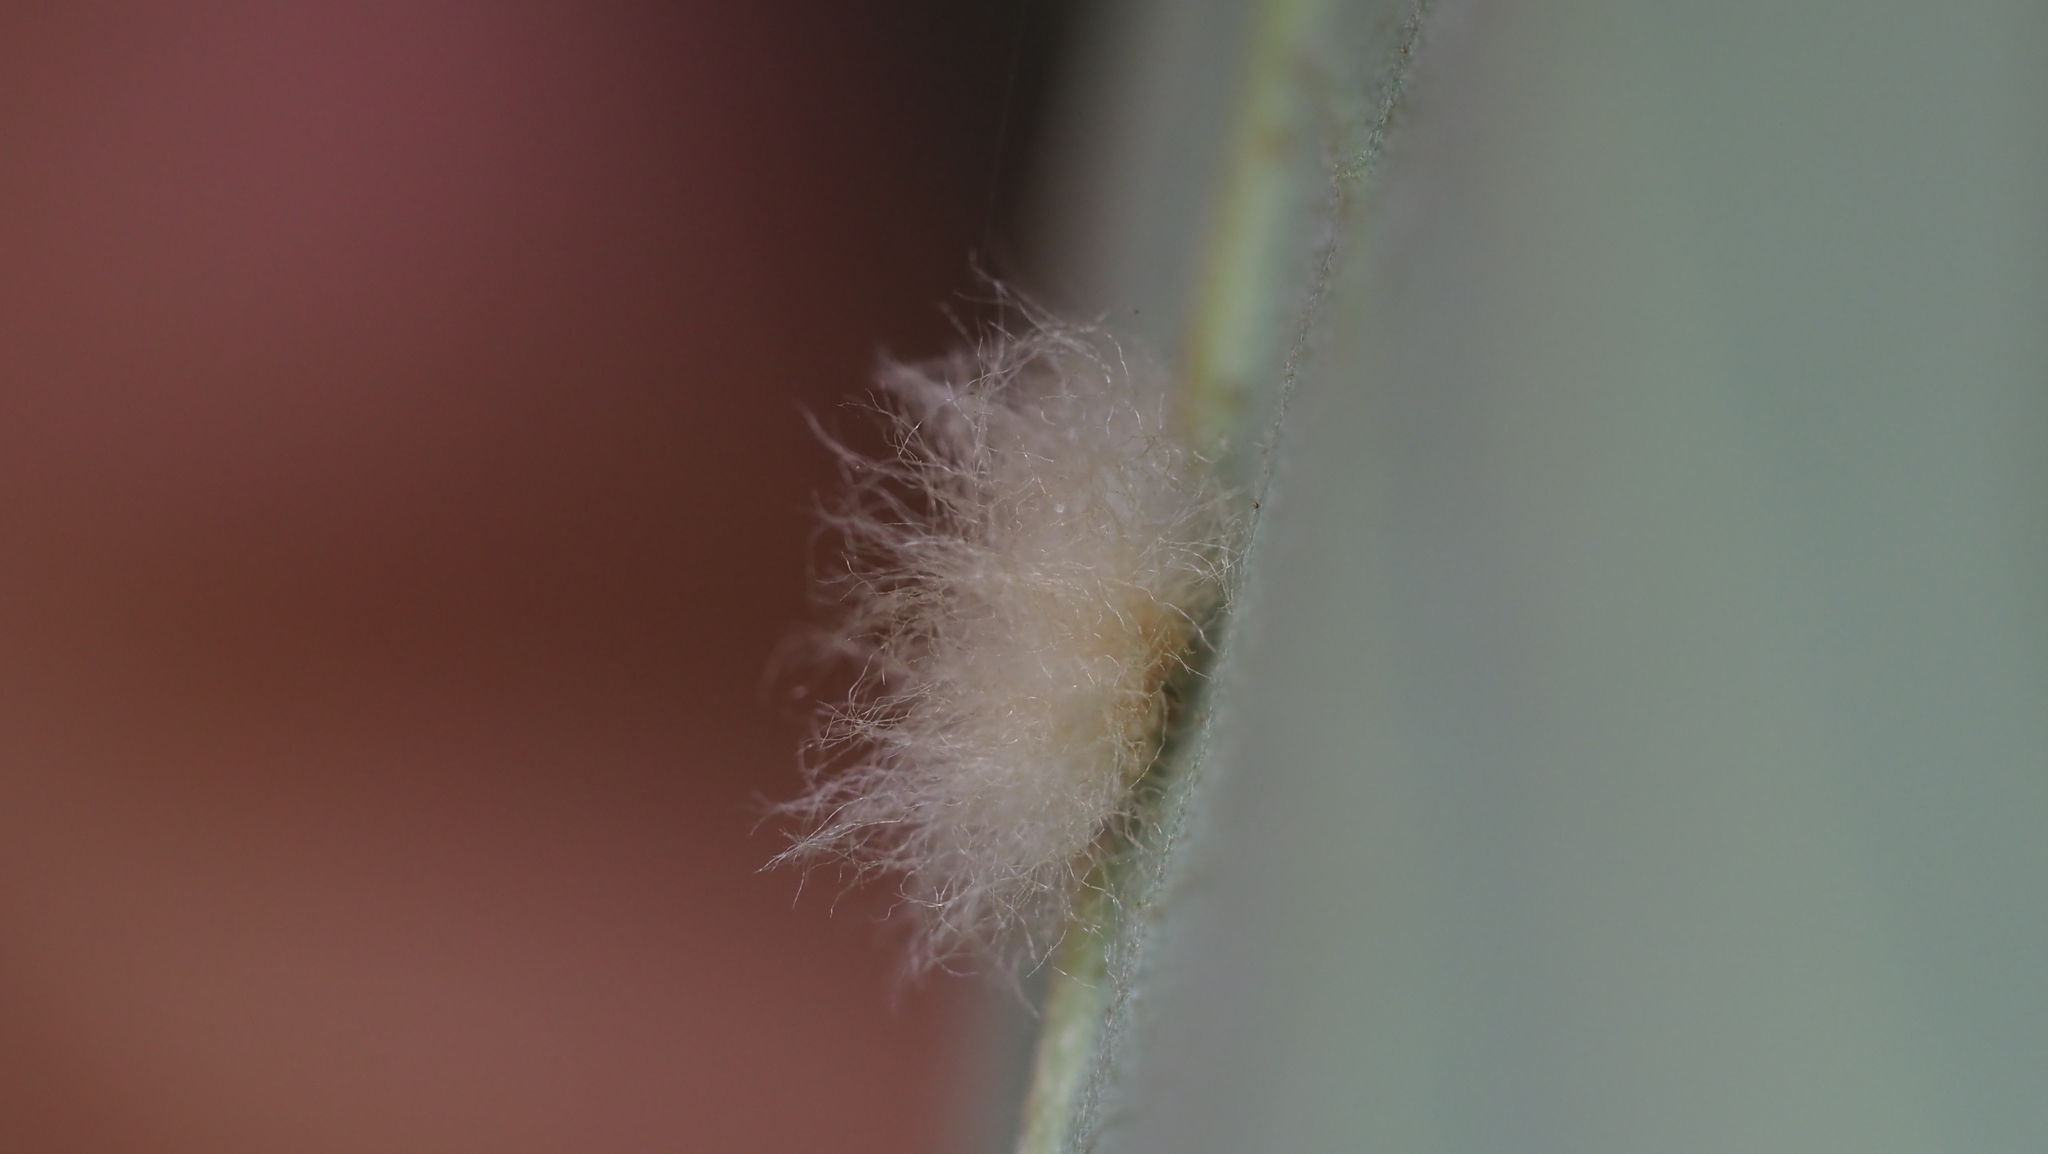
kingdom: Animalia
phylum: Arthropoda
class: Insecta
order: Hymenoptera
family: Cynipidae
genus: Andricus
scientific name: Andricus Druon ignotum
